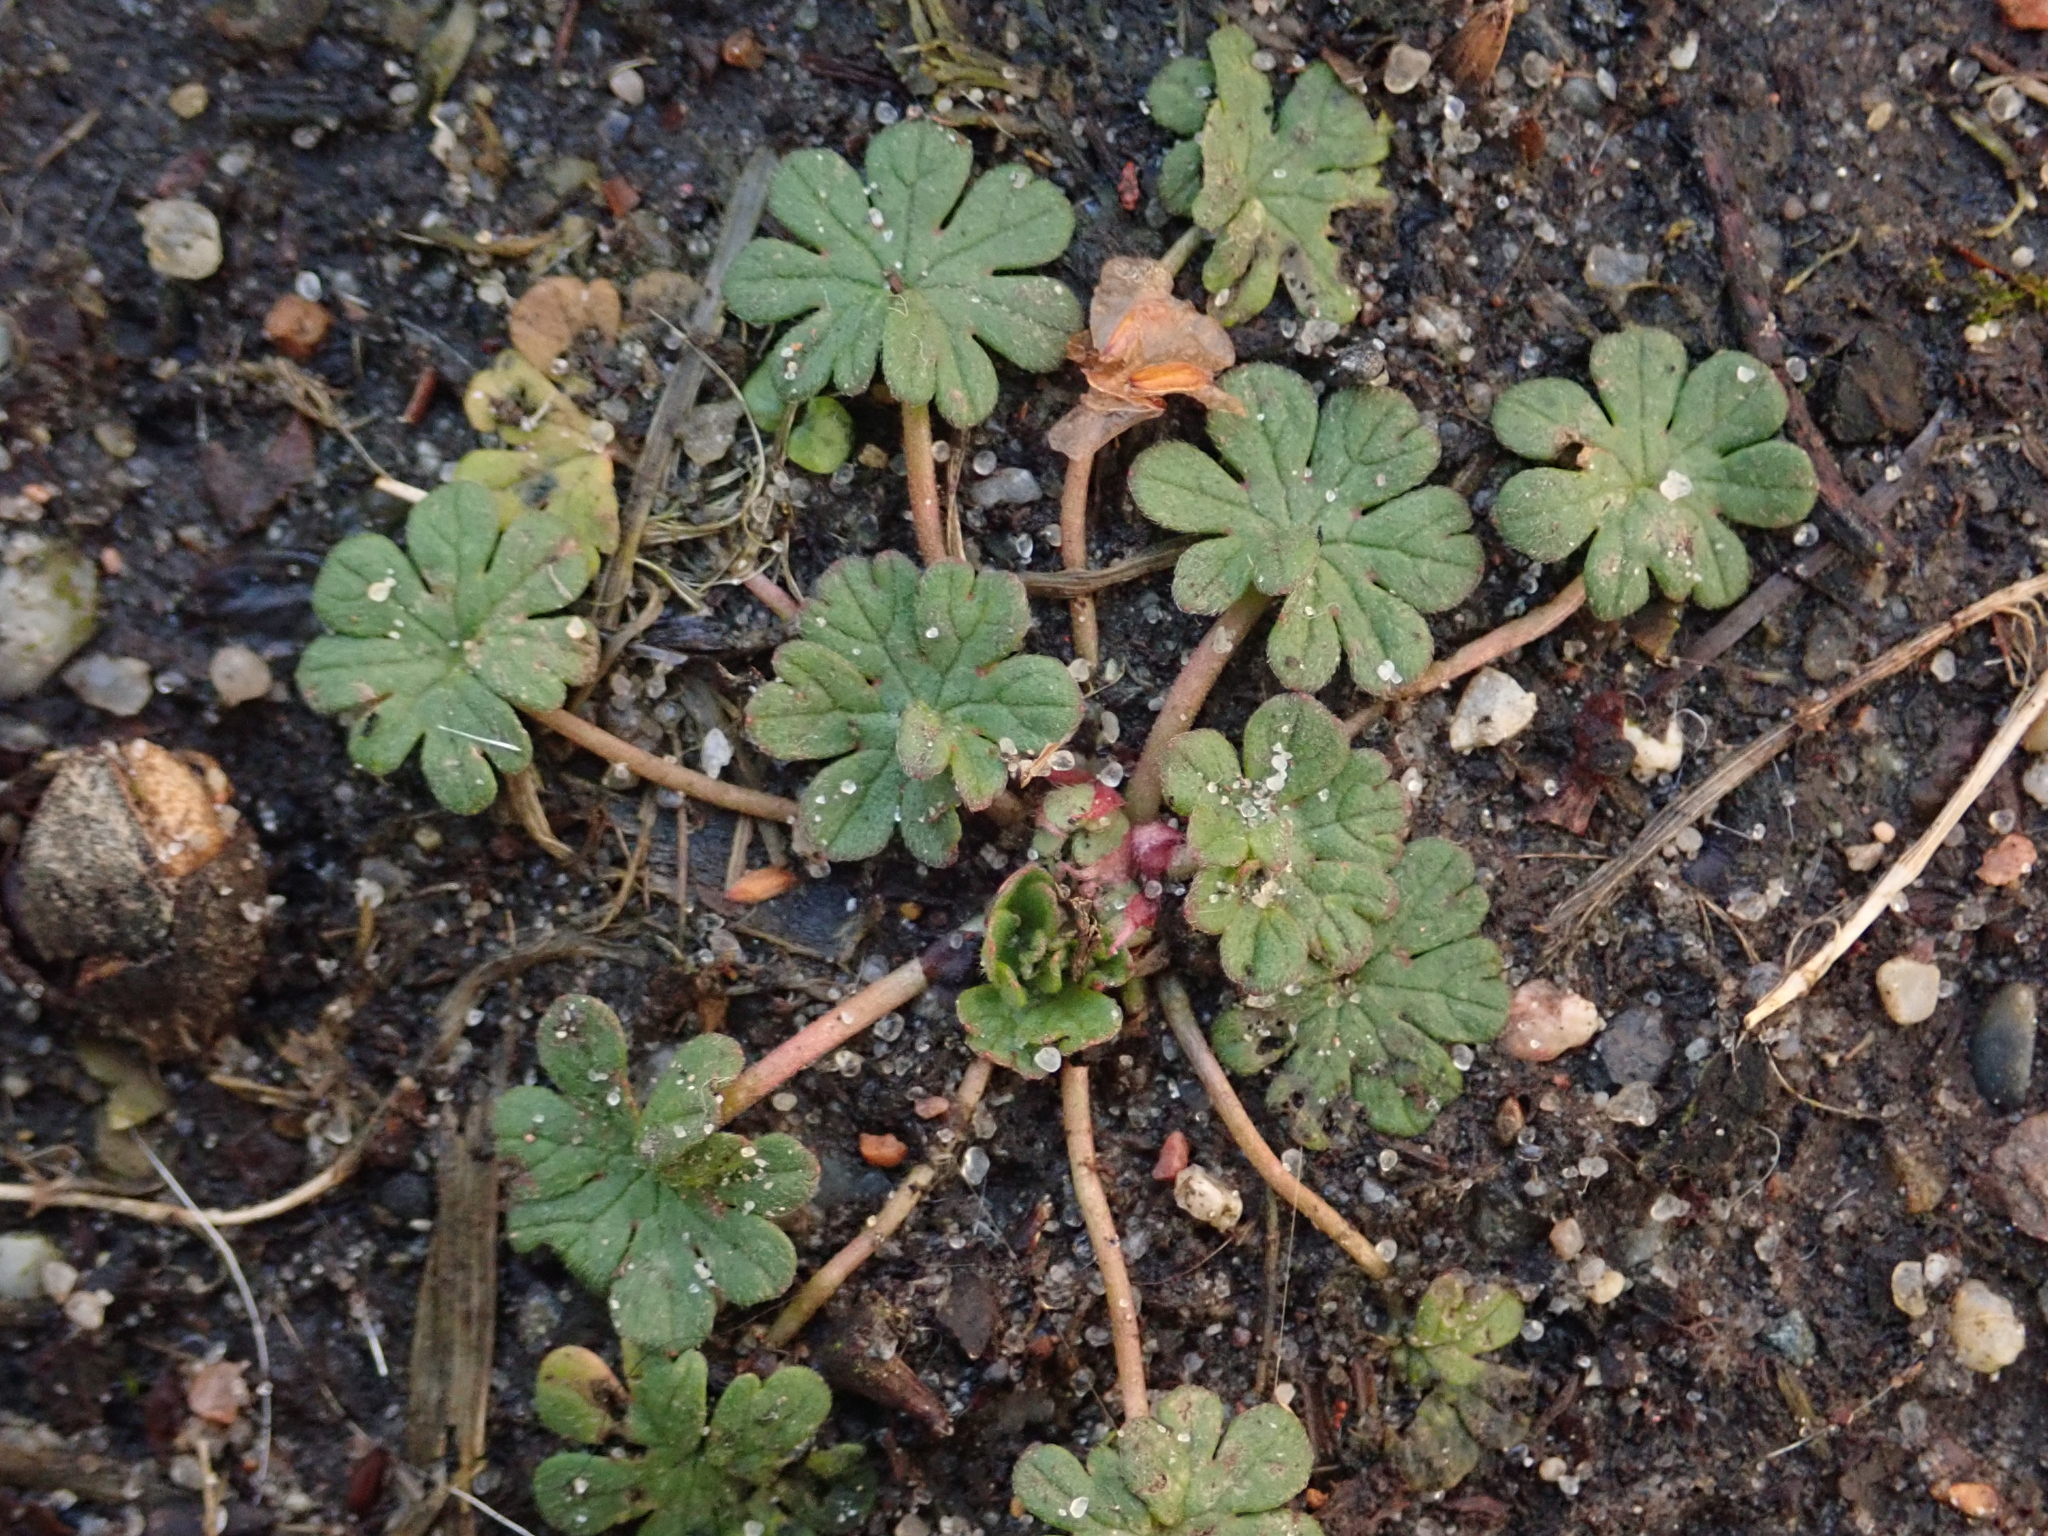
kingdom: Plantae
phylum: Tracheophyta
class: Magnoliopsida
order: Geraniales
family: Geraniaceae
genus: Geranium
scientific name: Geranium molle
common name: Dove's-foot crane's-bill
